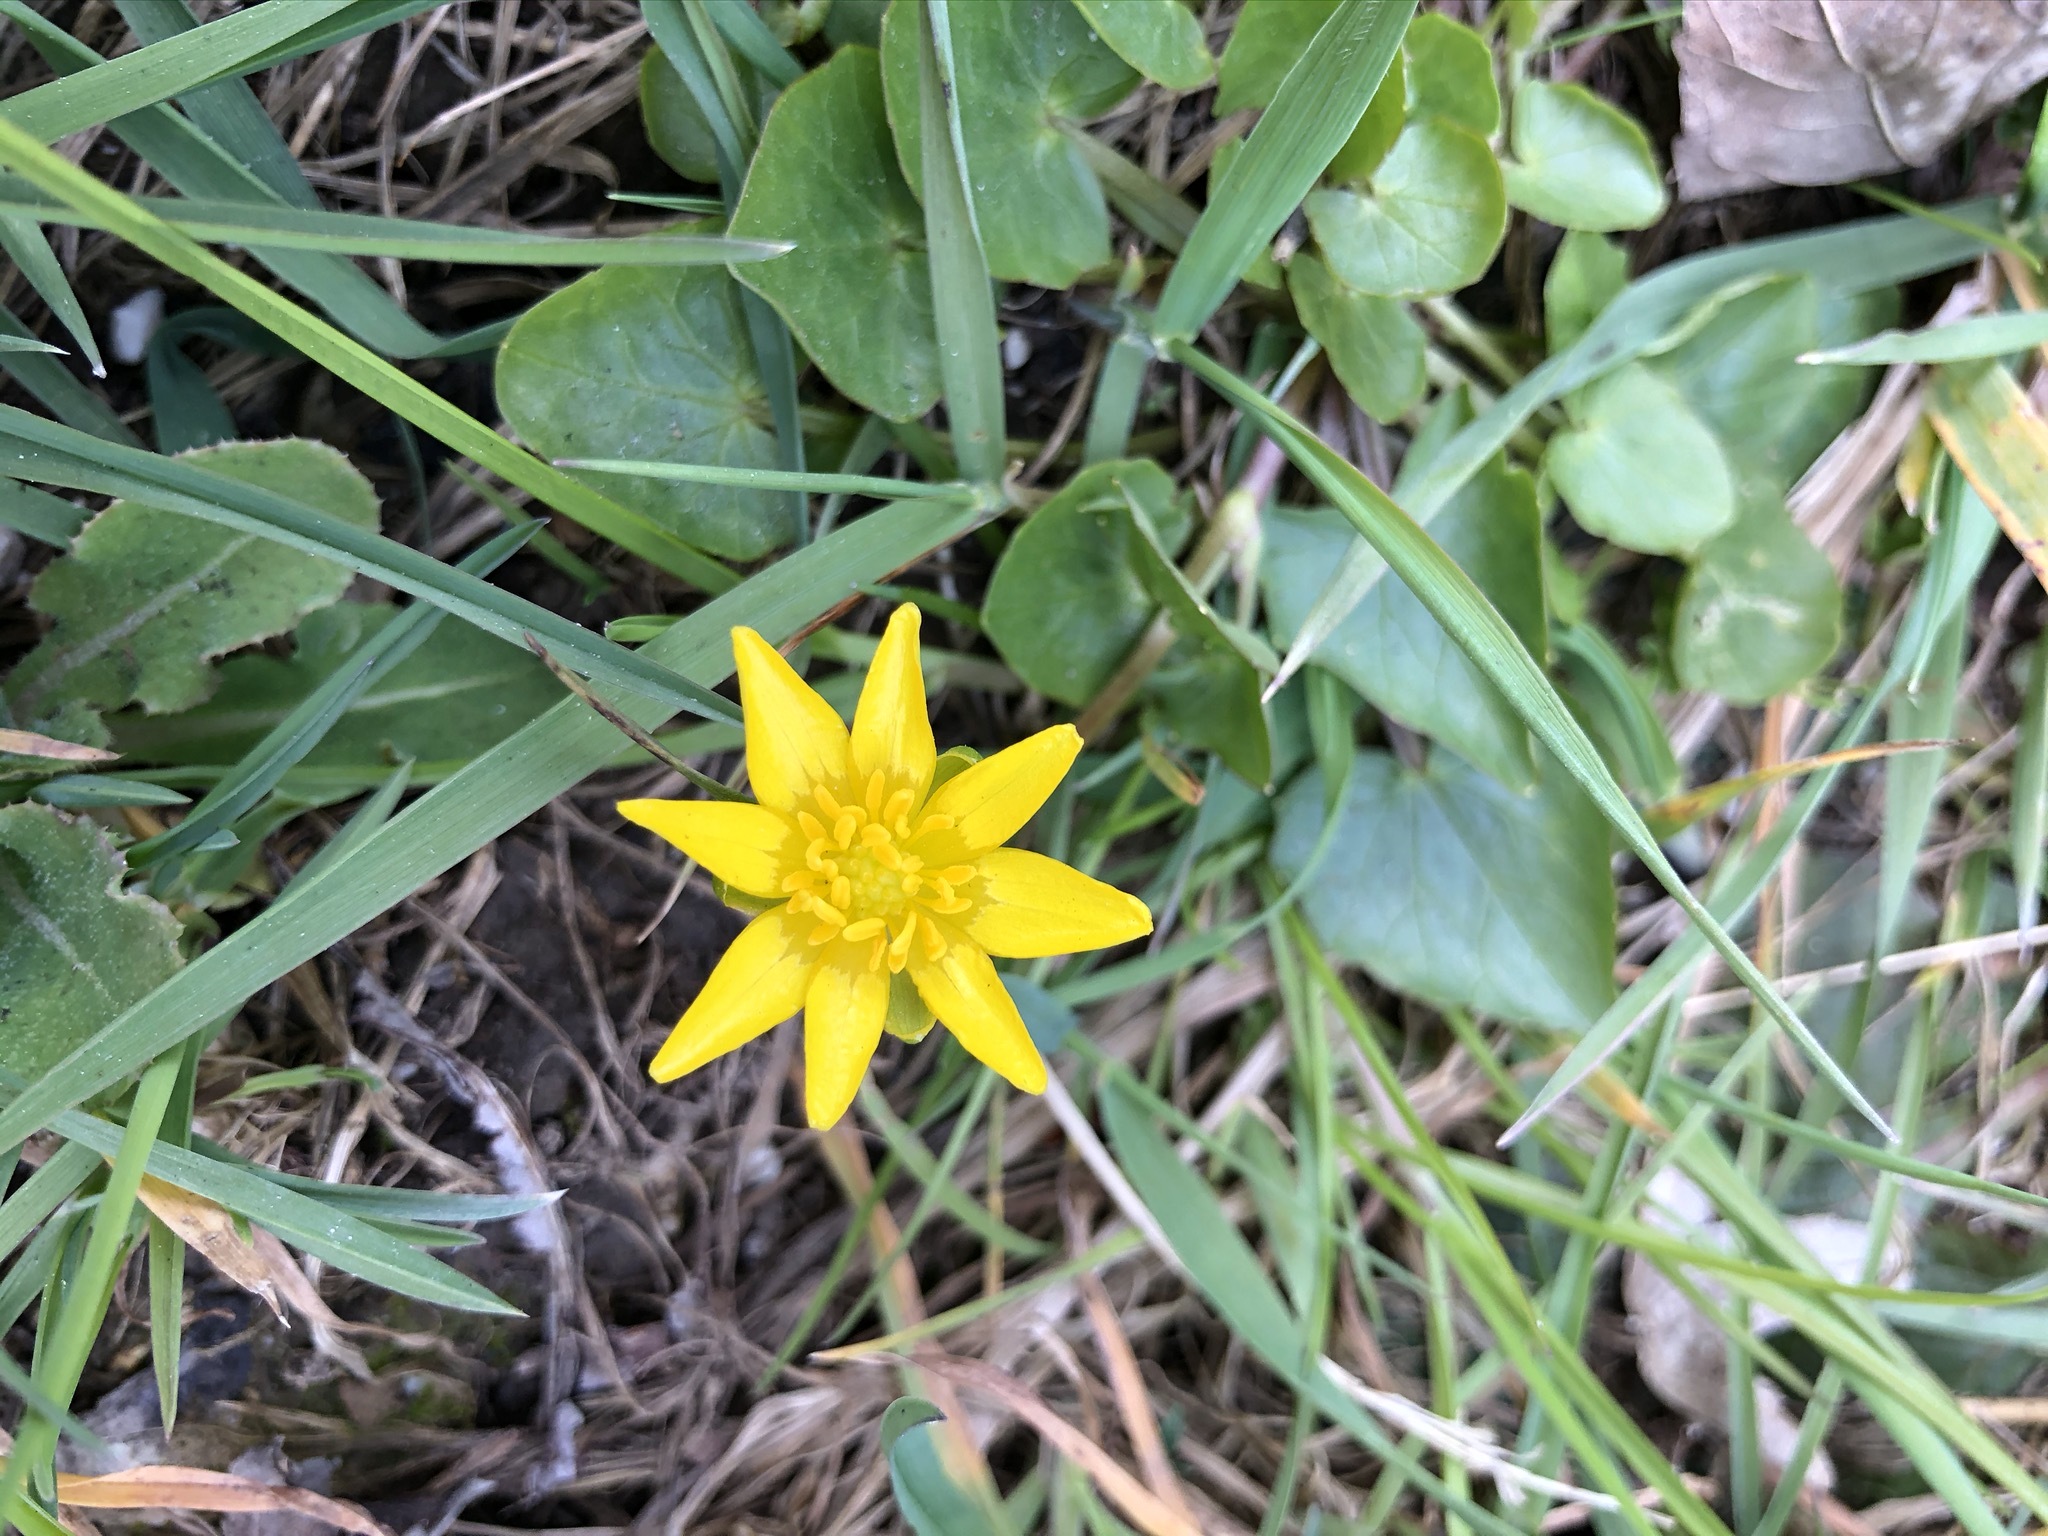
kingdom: Plantae
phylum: Tracheophyta
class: Magnoliopsida
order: Ranunculales
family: Ranunculaceae
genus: Ficaria
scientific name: Ficaria verna
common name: Lesser celandine
